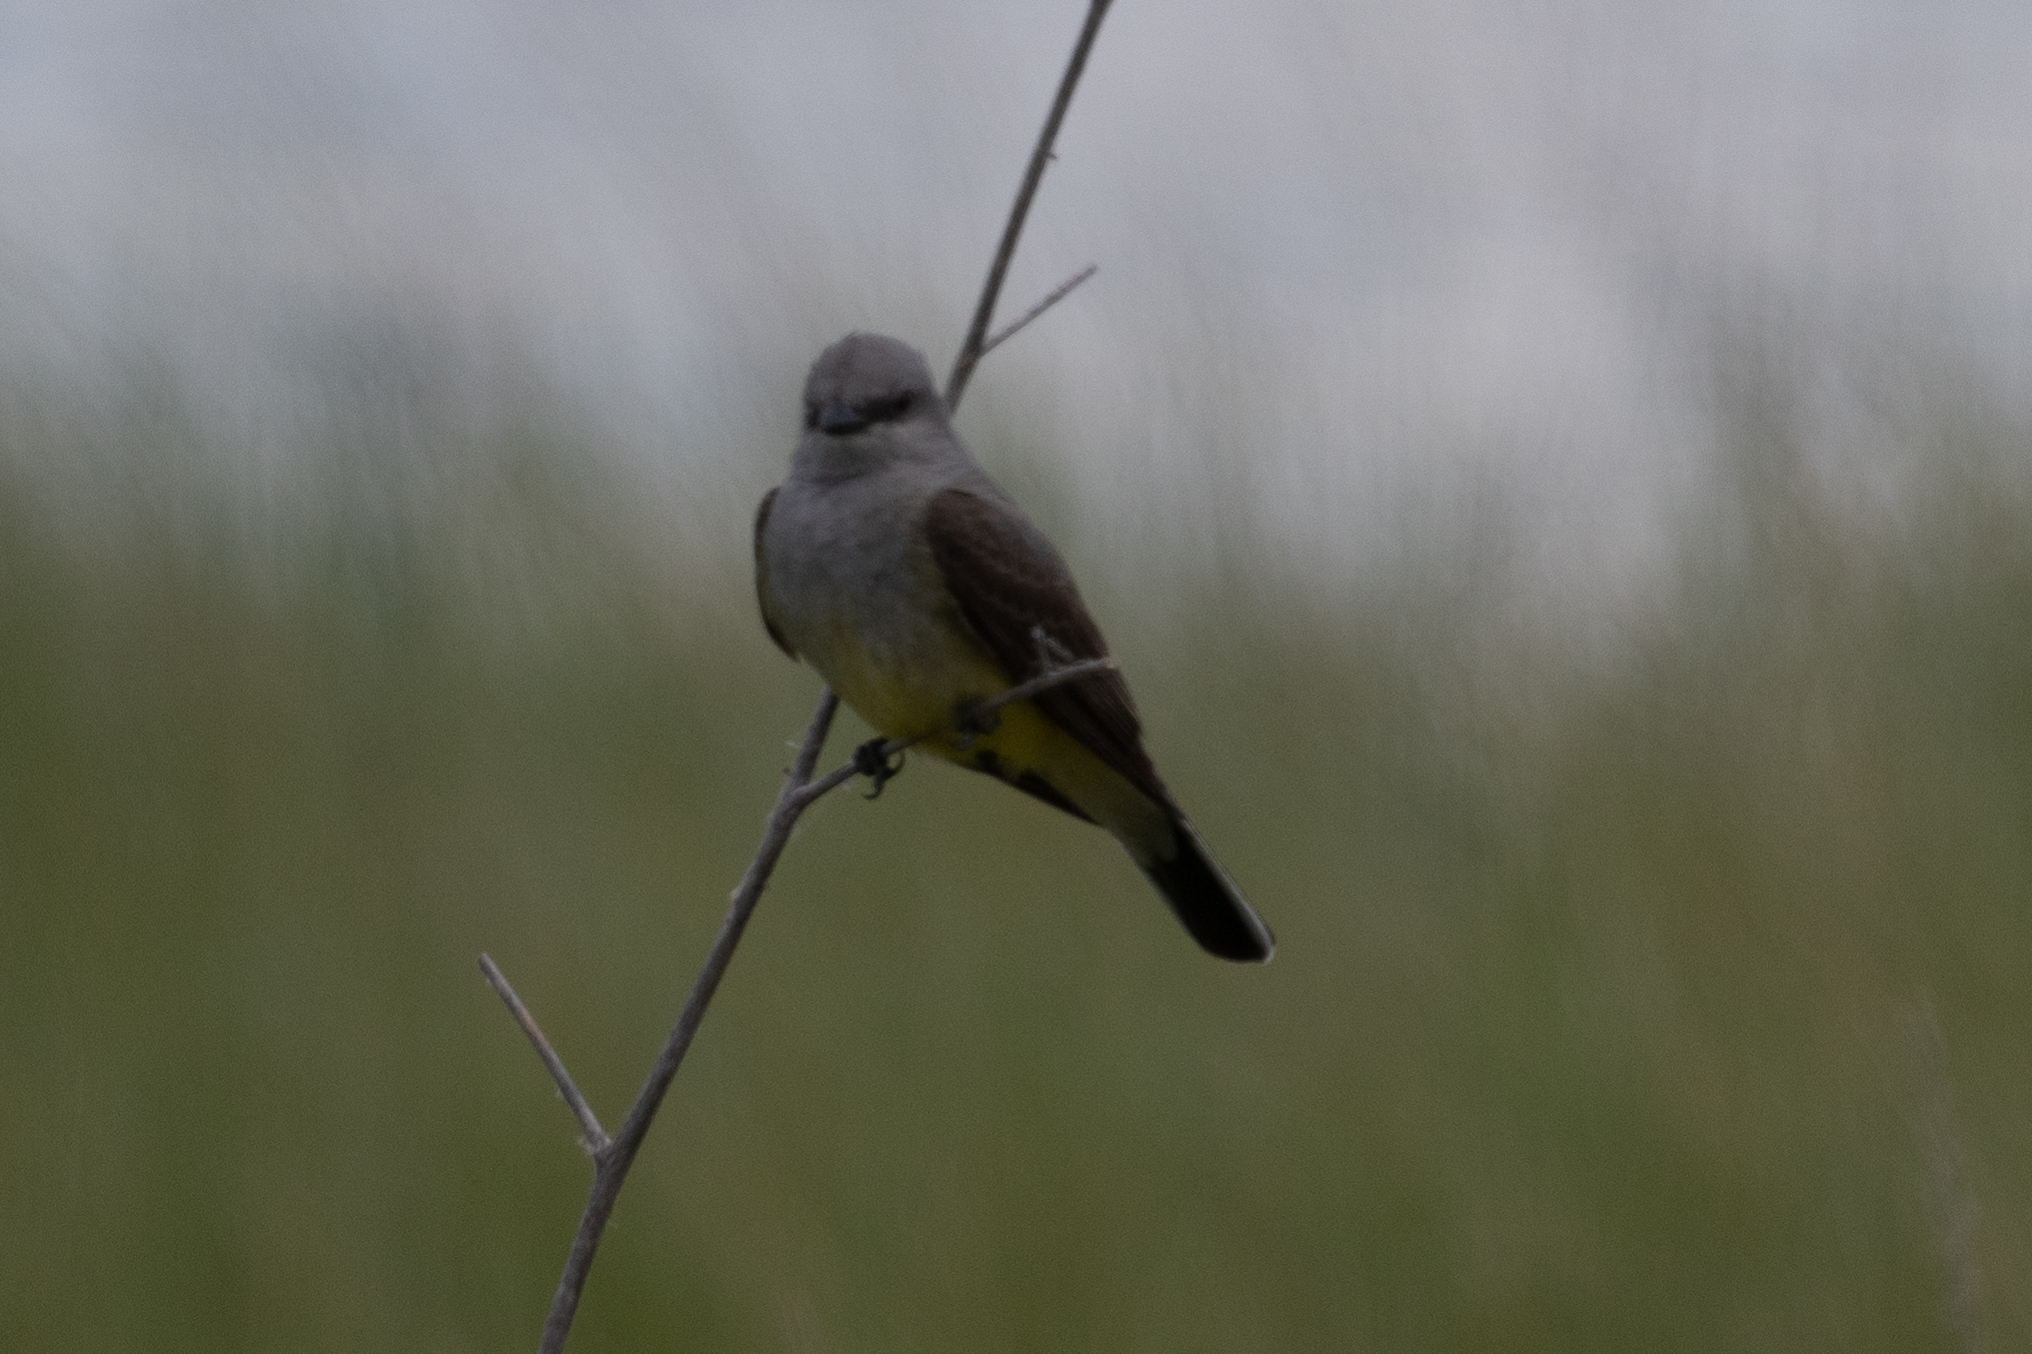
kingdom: Animalia
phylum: Chordata
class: Aves
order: Passeriformes
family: Tyrannidae
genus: Tyrannus
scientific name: Tyrannus verticalis
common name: Western kingbird
